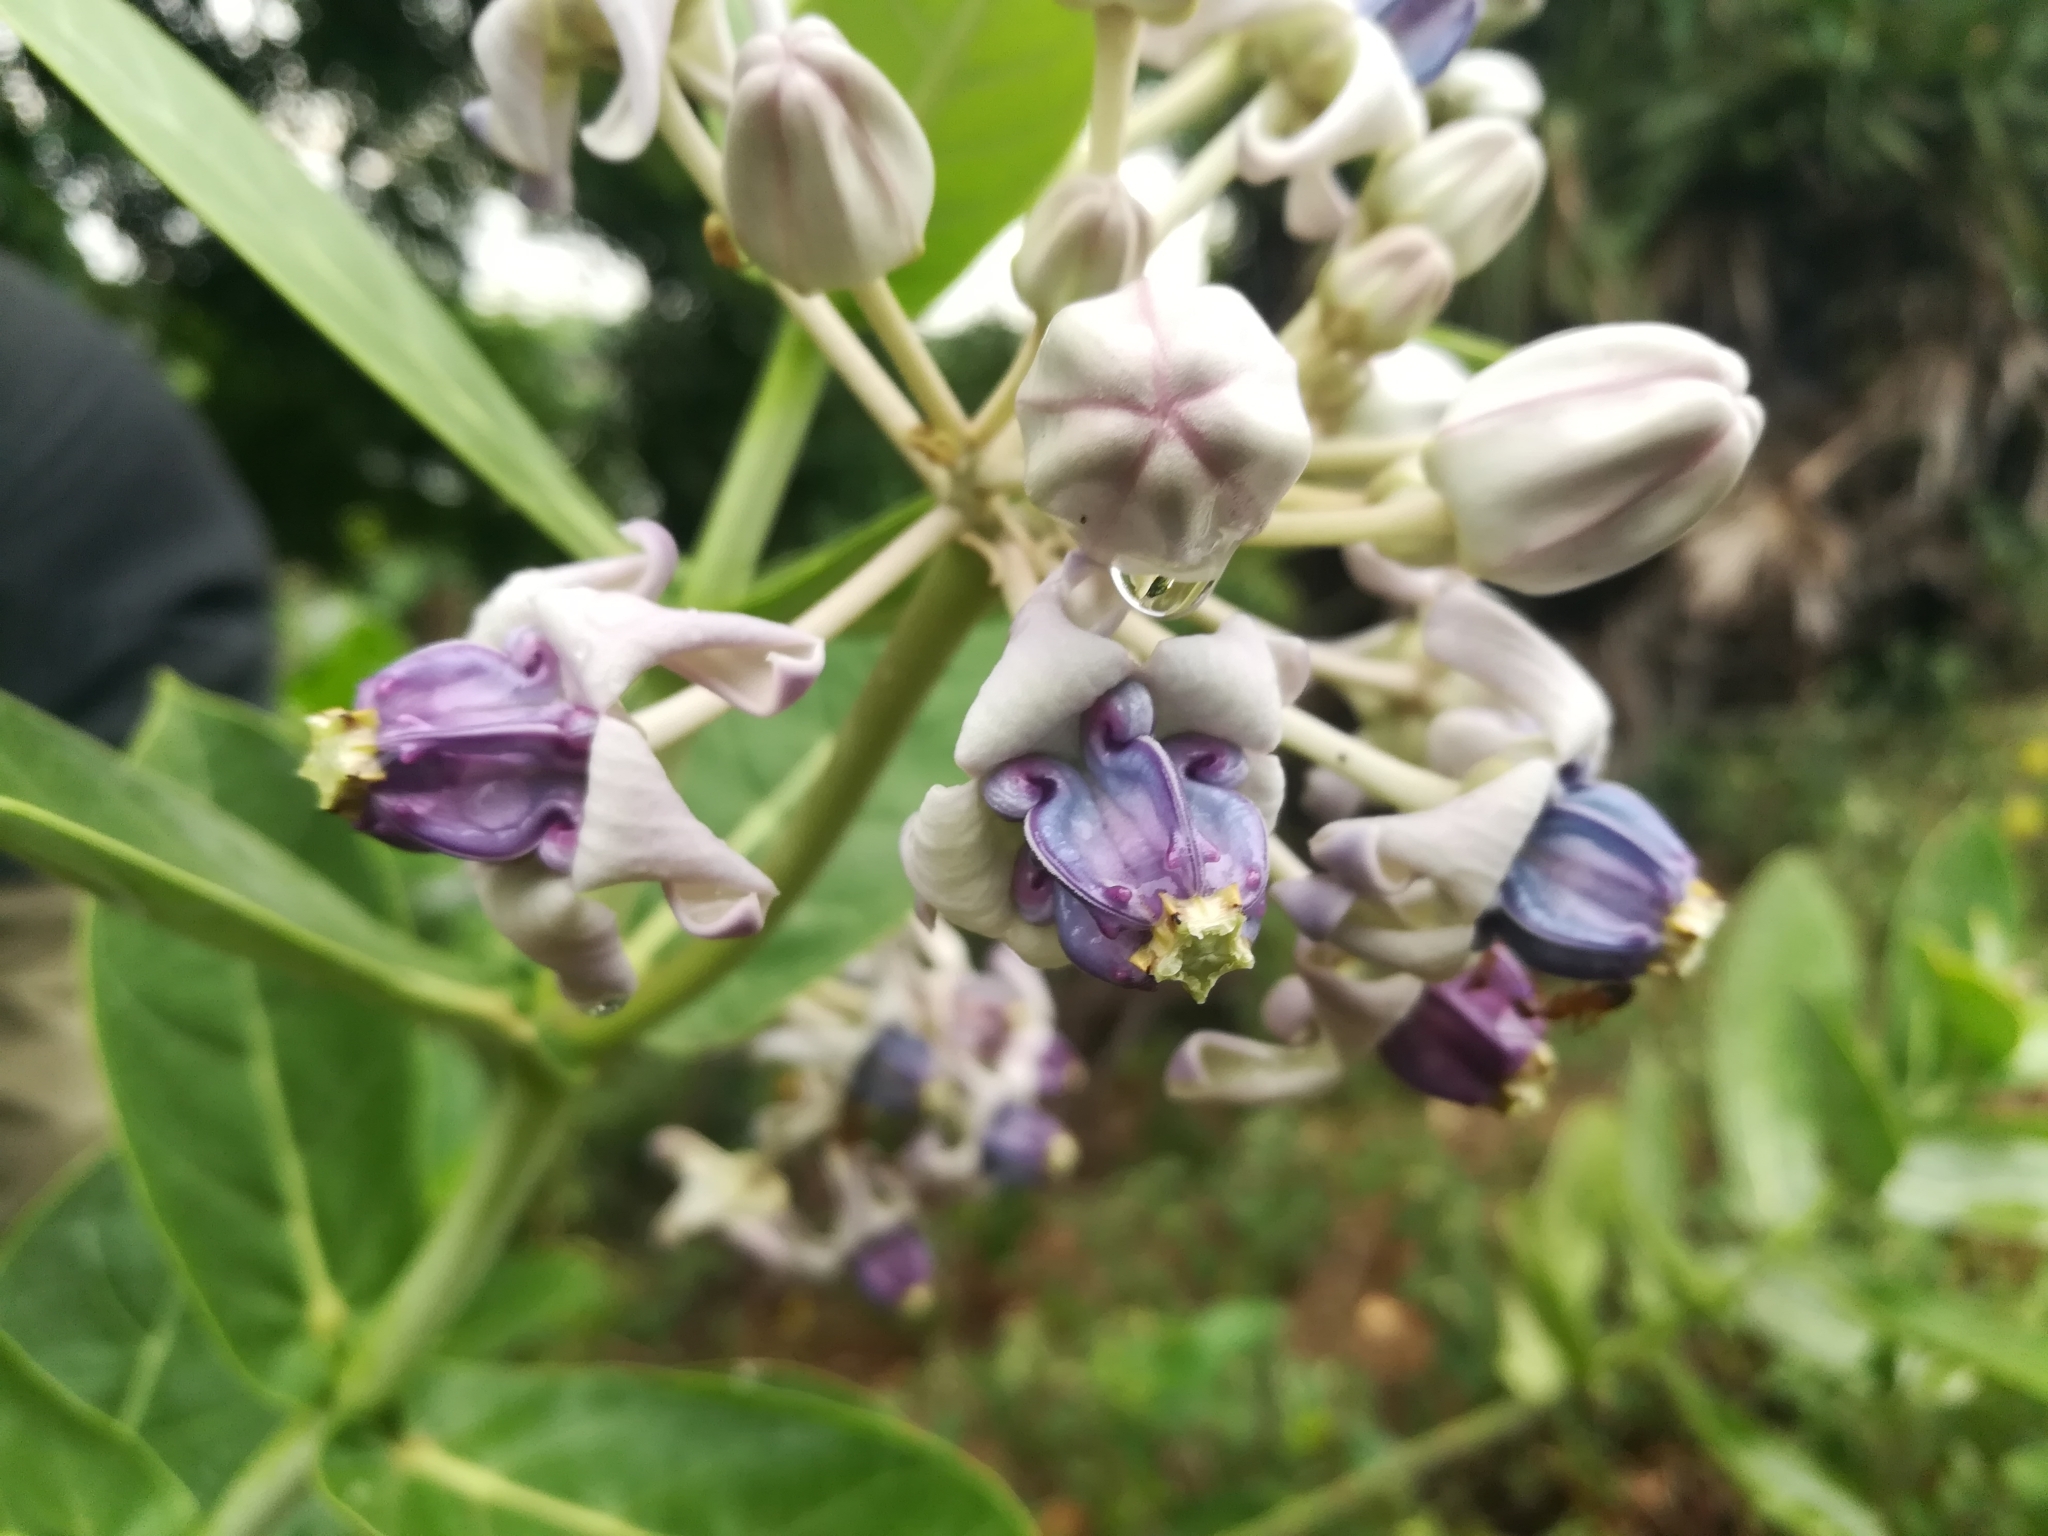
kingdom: Plantae
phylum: Tracheophyta
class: Magnoliopsida
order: Gentianales
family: Apocynaceae
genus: Calotropis
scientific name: Calotropis gigantea
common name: Crown flower
